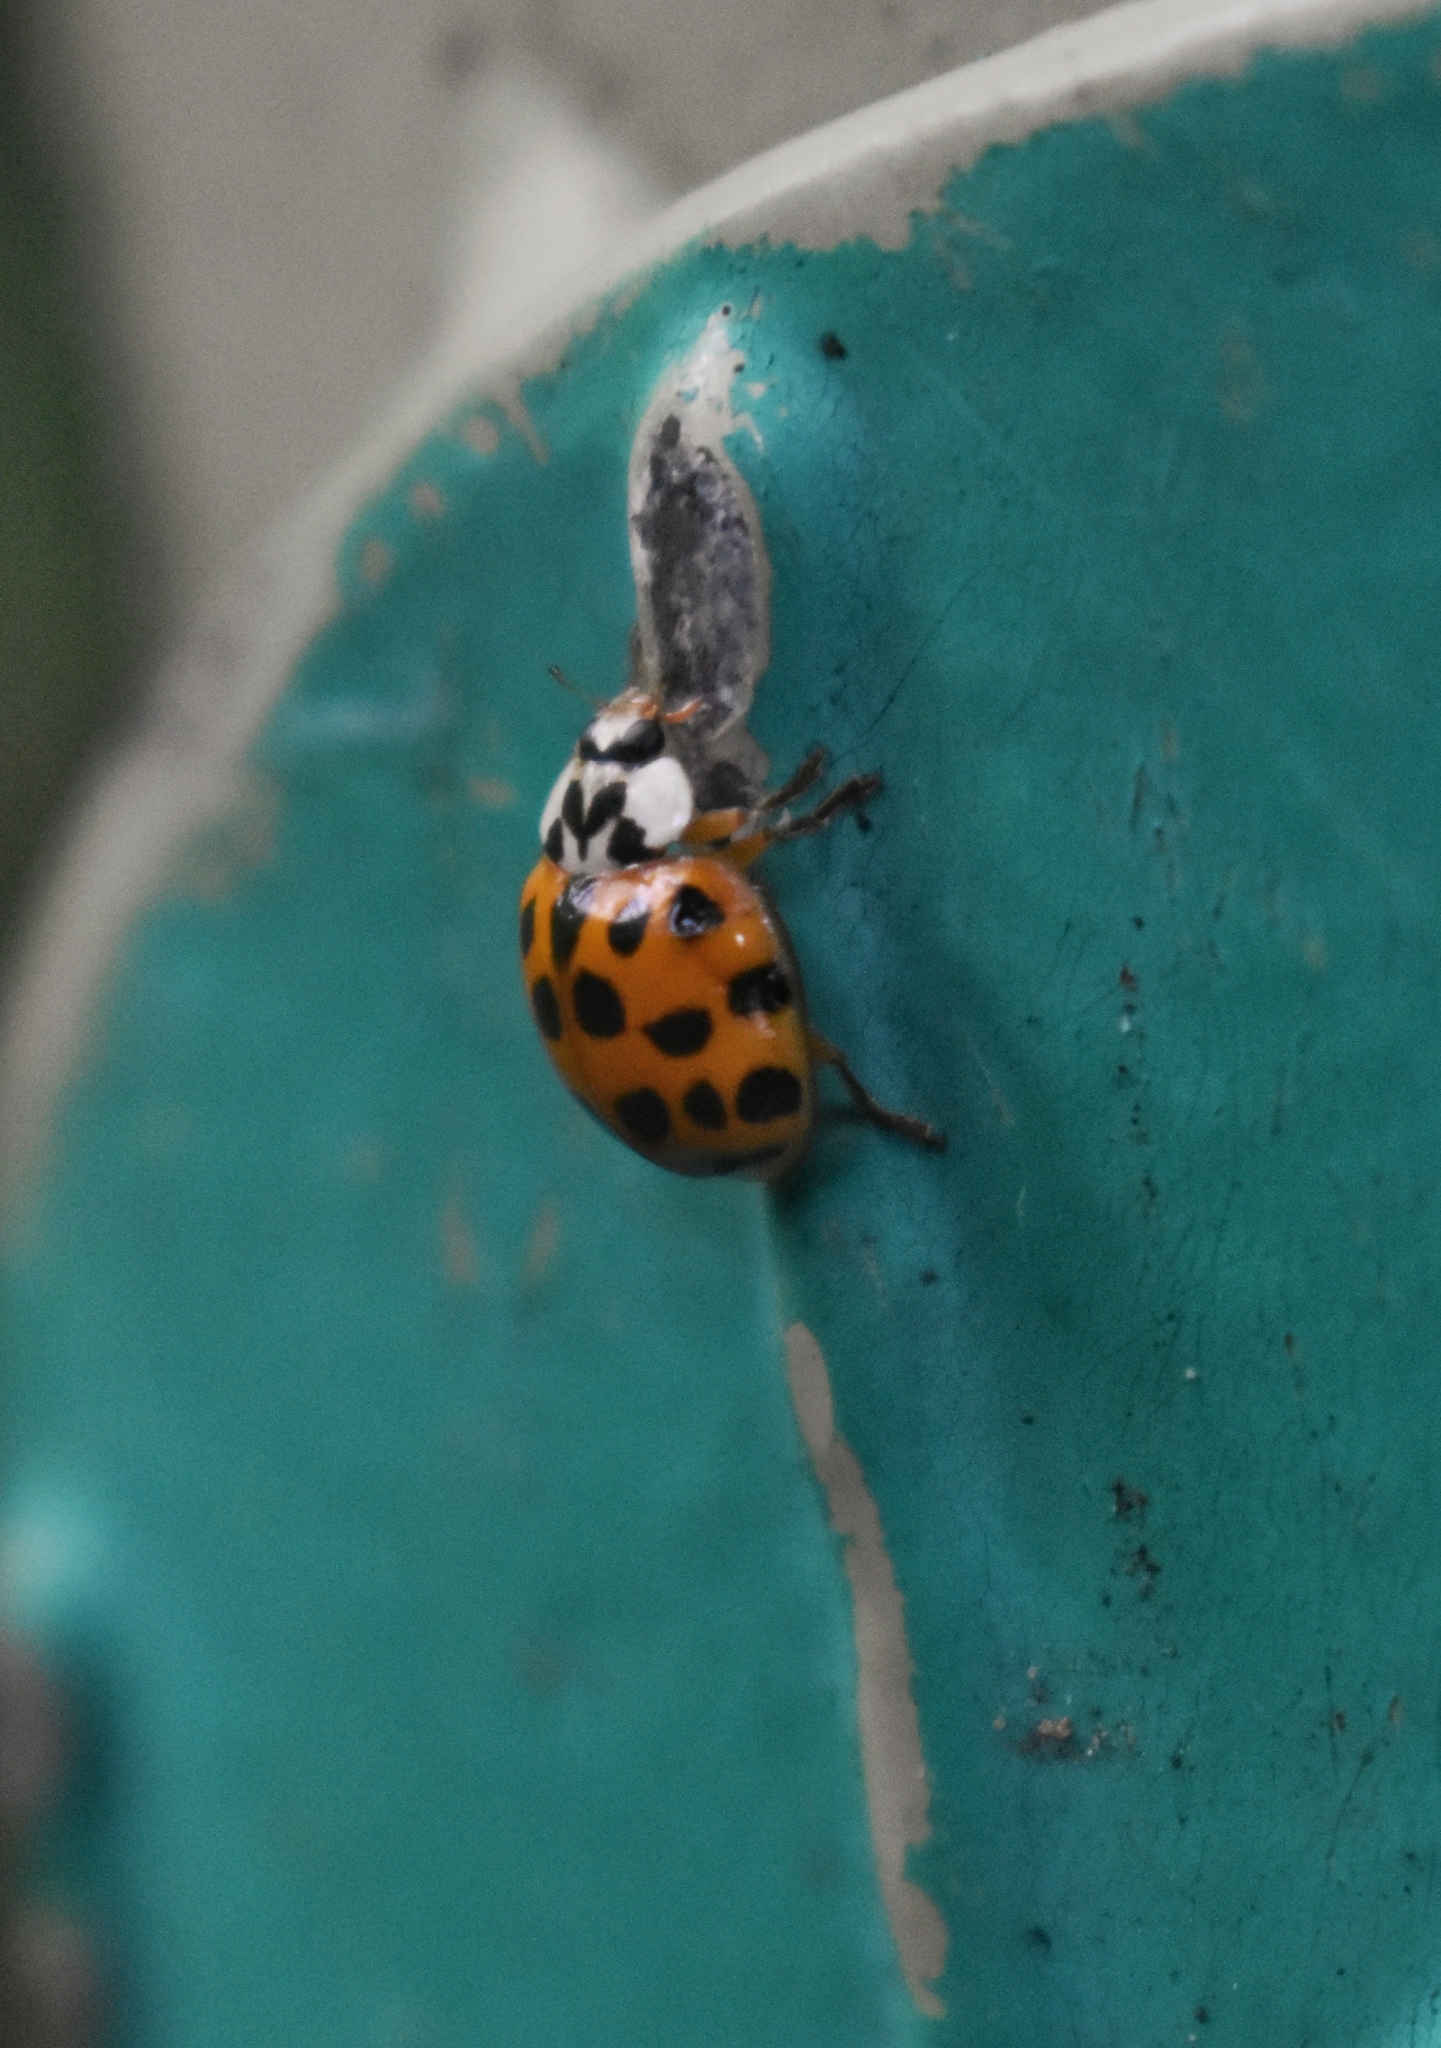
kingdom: Animalia
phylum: Arthropoda
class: Insecta
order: Coleoptera
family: Coccinellidae
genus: Harmonia
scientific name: Harmonia axyridis
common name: Harlequin ladybird
